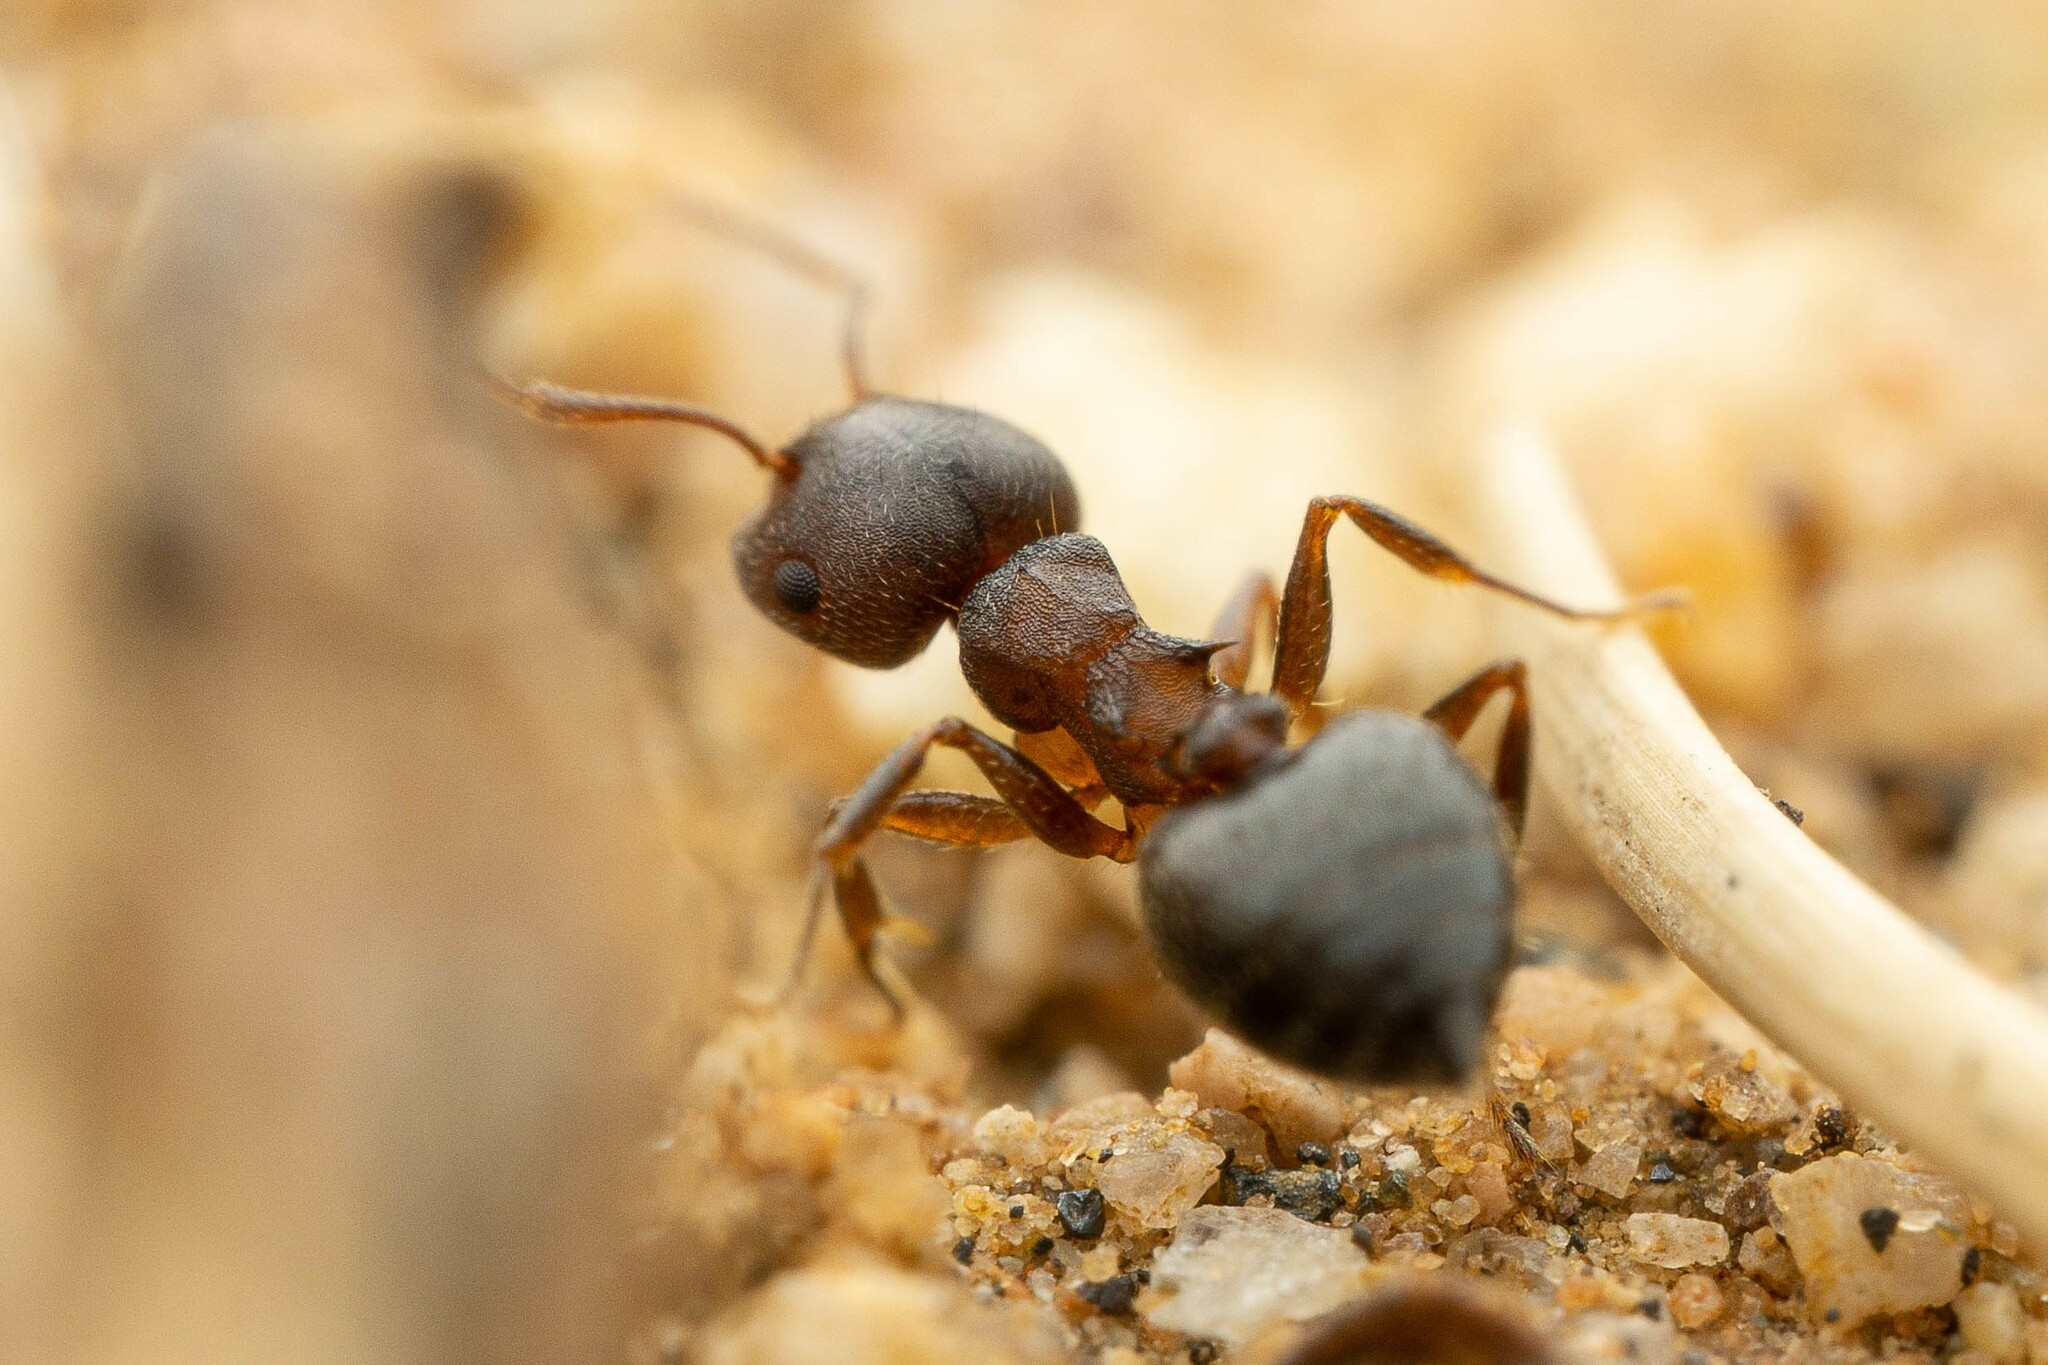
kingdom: Animalia
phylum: Arthropoda
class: Insecta
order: Hymenoptera
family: Formicidae
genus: Crematogaster
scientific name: Crematogaster dentinodis
